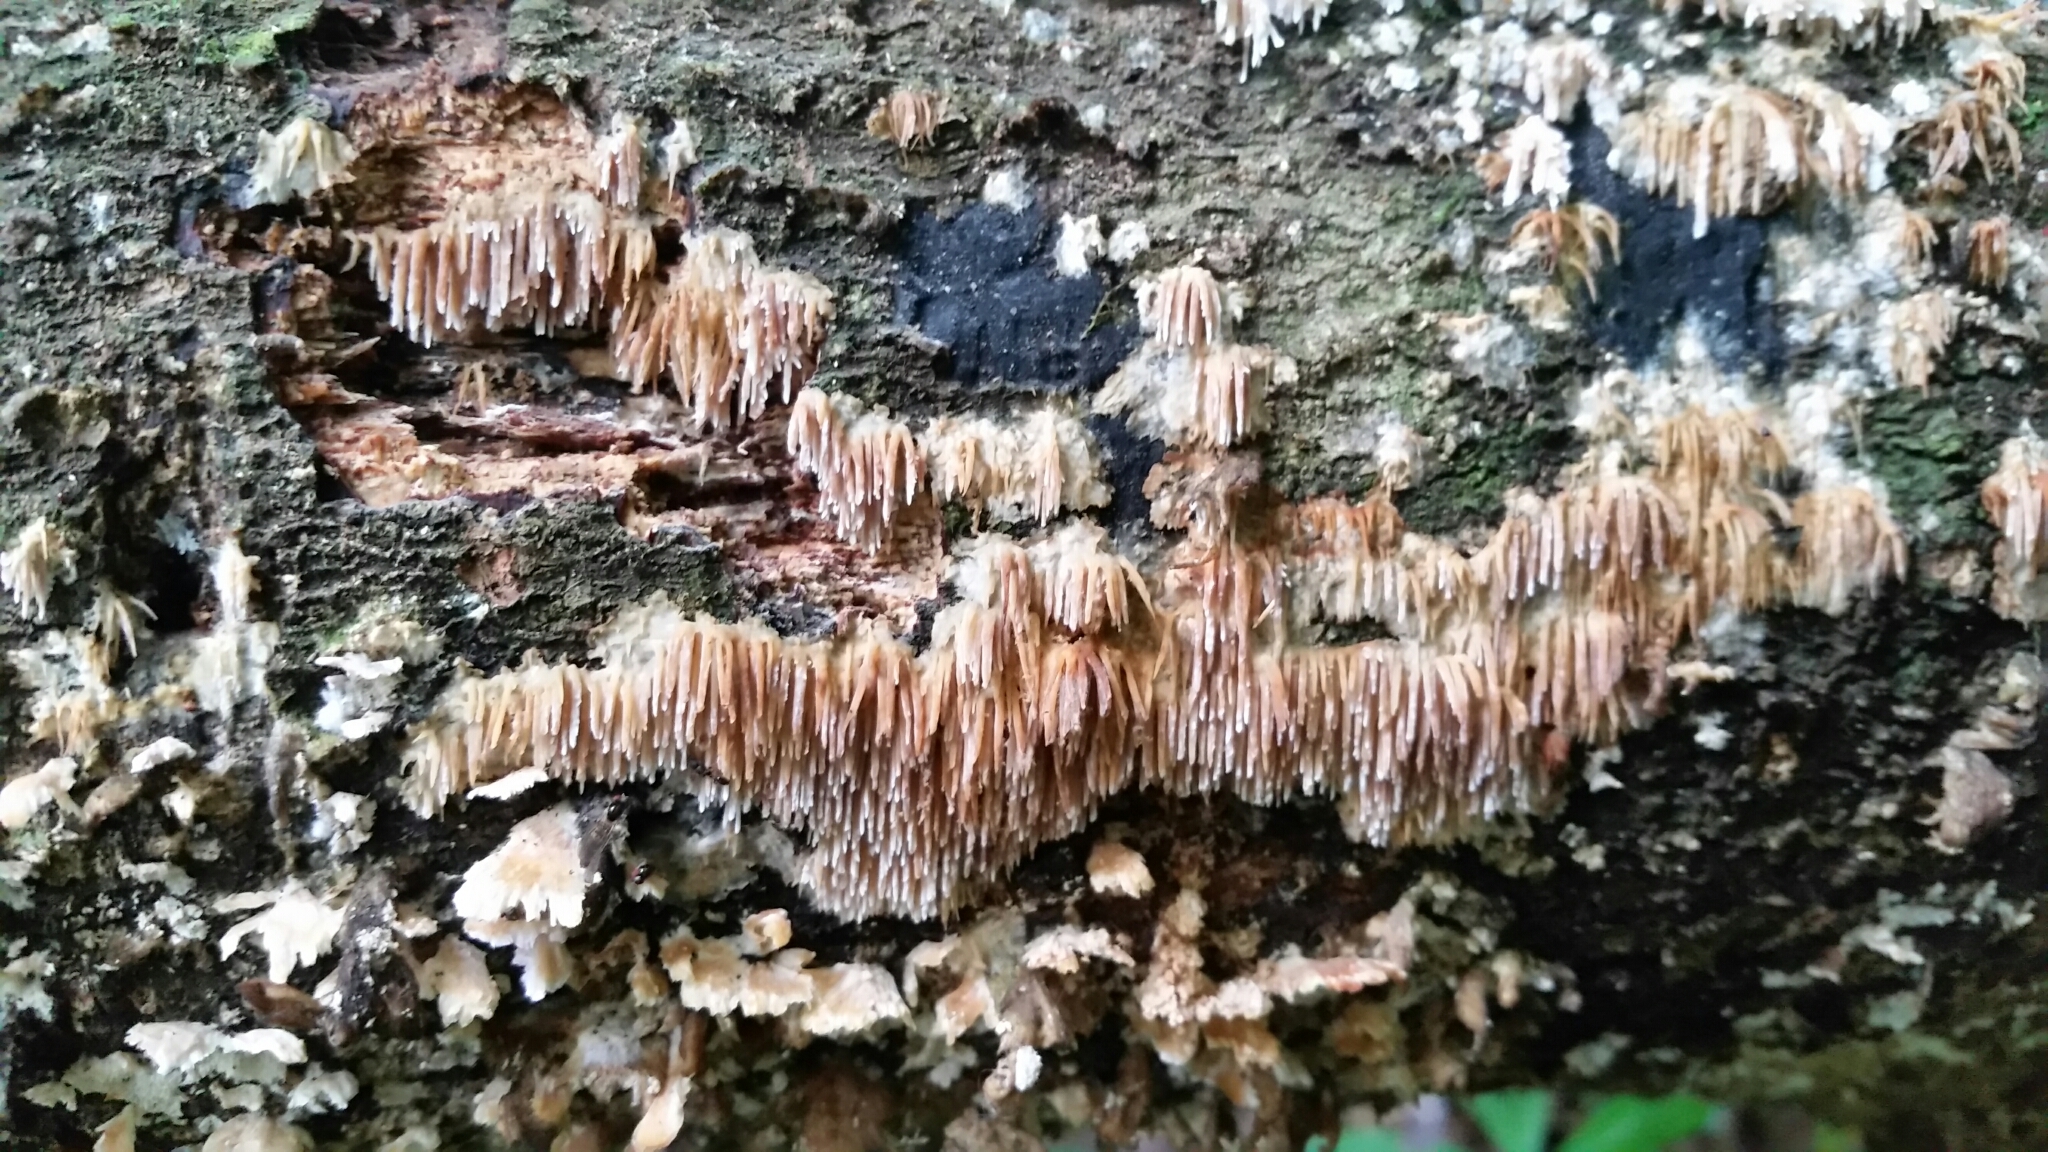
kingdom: Fungi
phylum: Basidiomycota
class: Agaricomycetes
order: Agaricales
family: Radulomycetaceae
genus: Radulomyces
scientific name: Radulomyces copelandii
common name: Asian beauty
